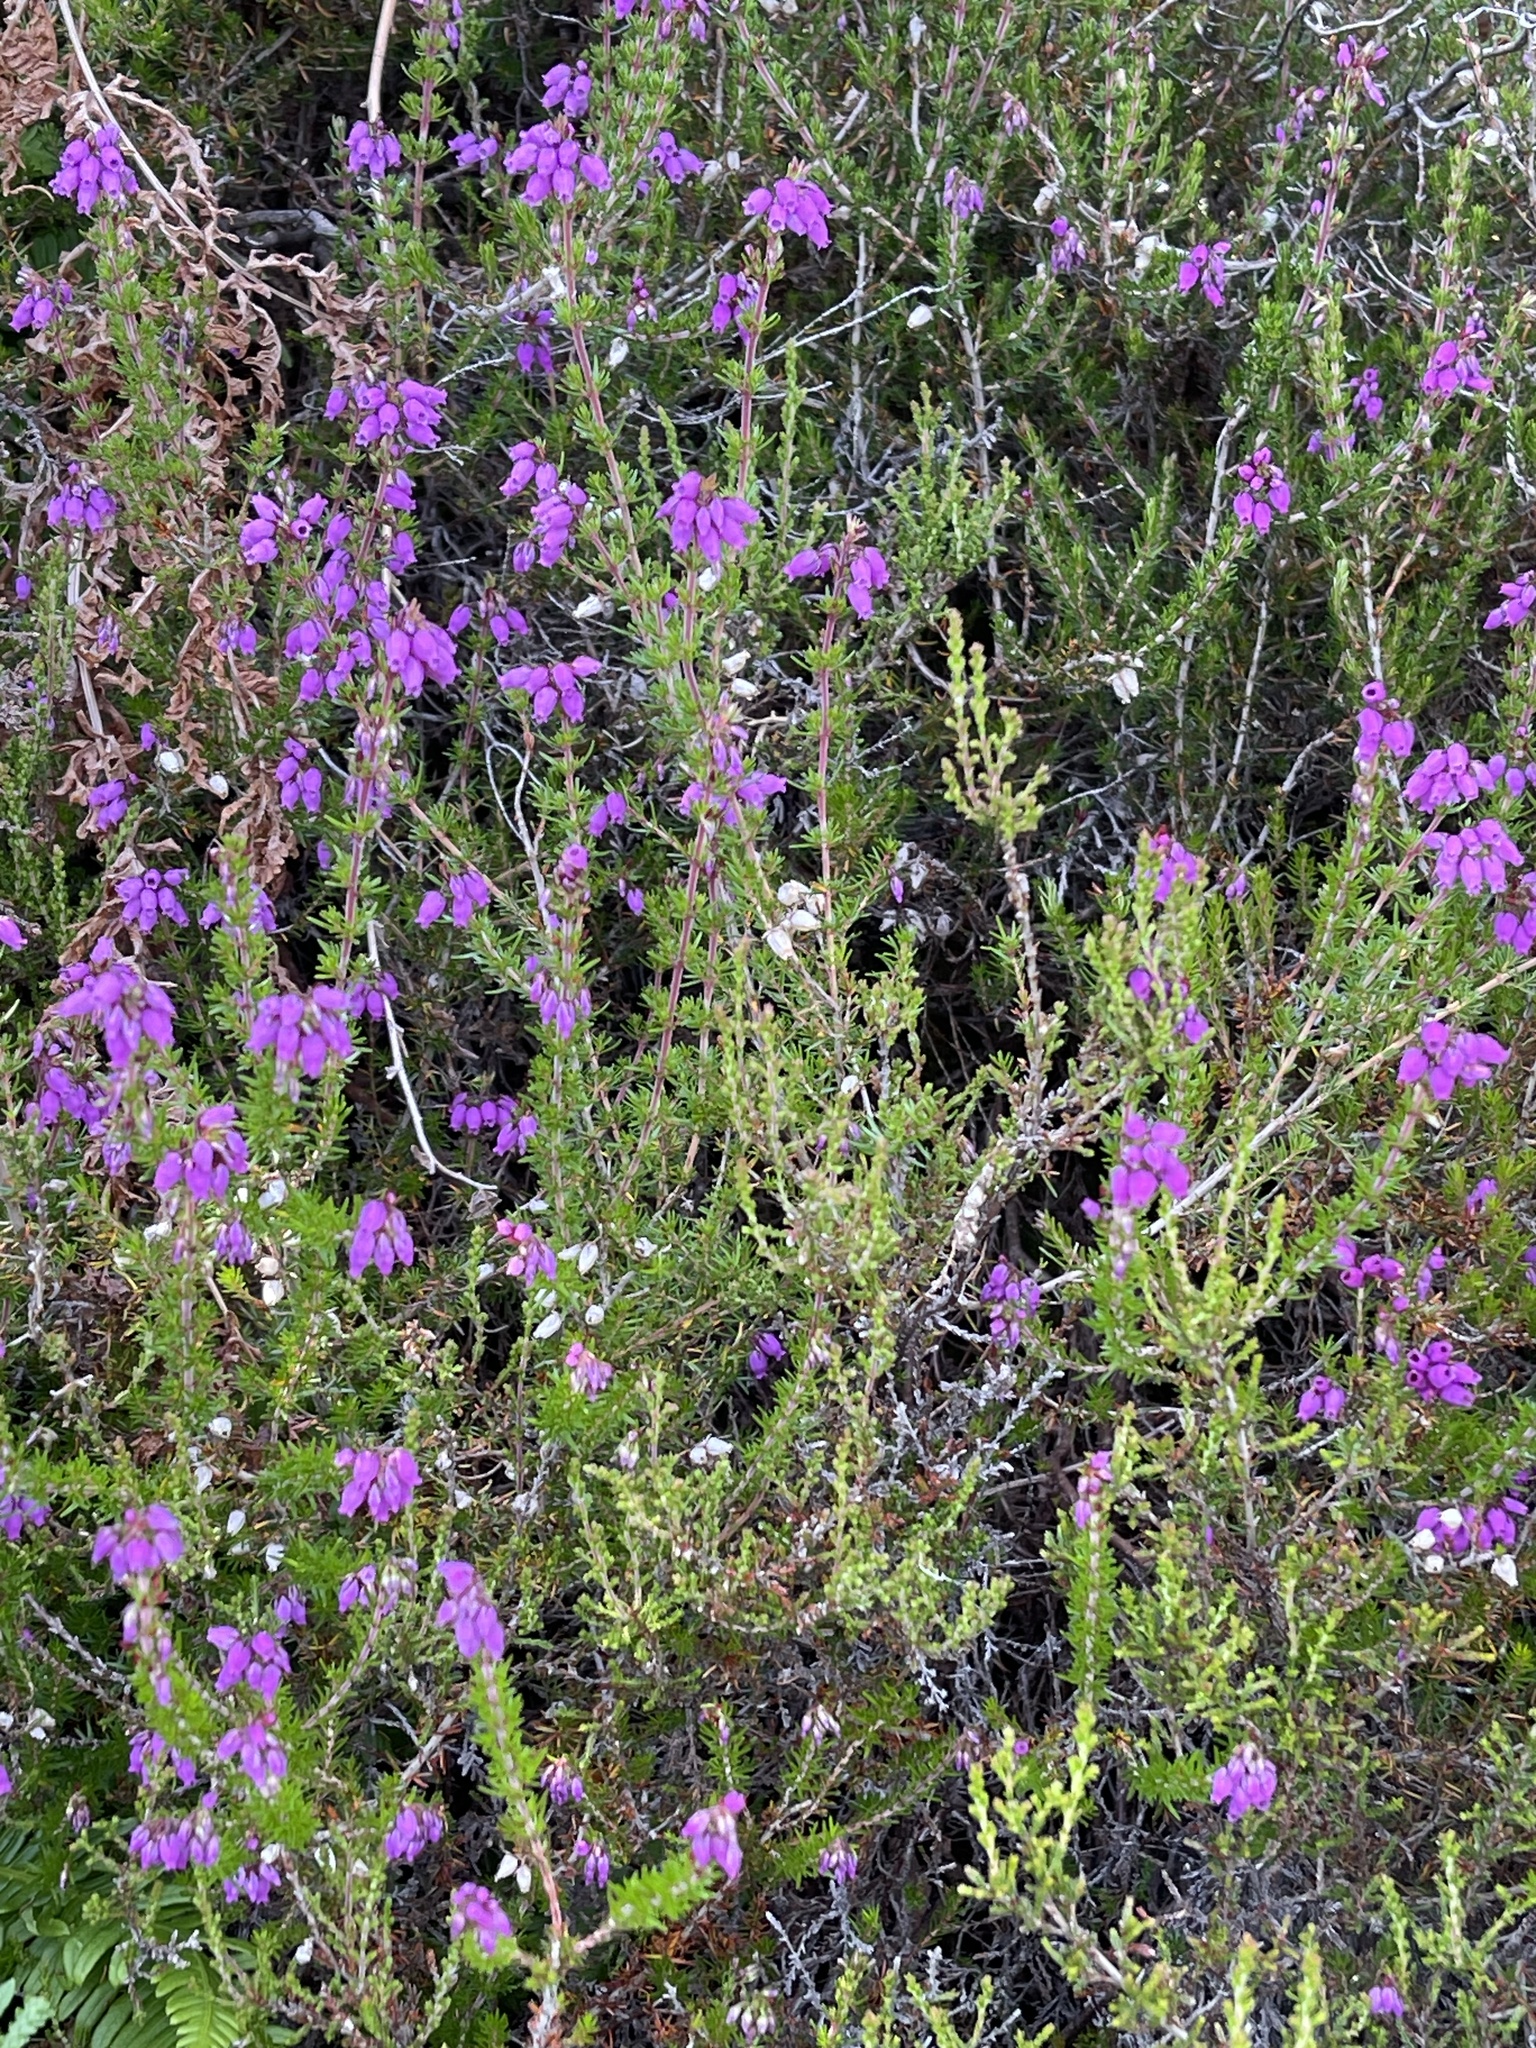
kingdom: Plantae
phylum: Tracheophyta
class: Magnoliopsida
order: Ericales
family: Ericaceae
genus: Erica
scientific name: Erica cinerea
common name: Bell heather
